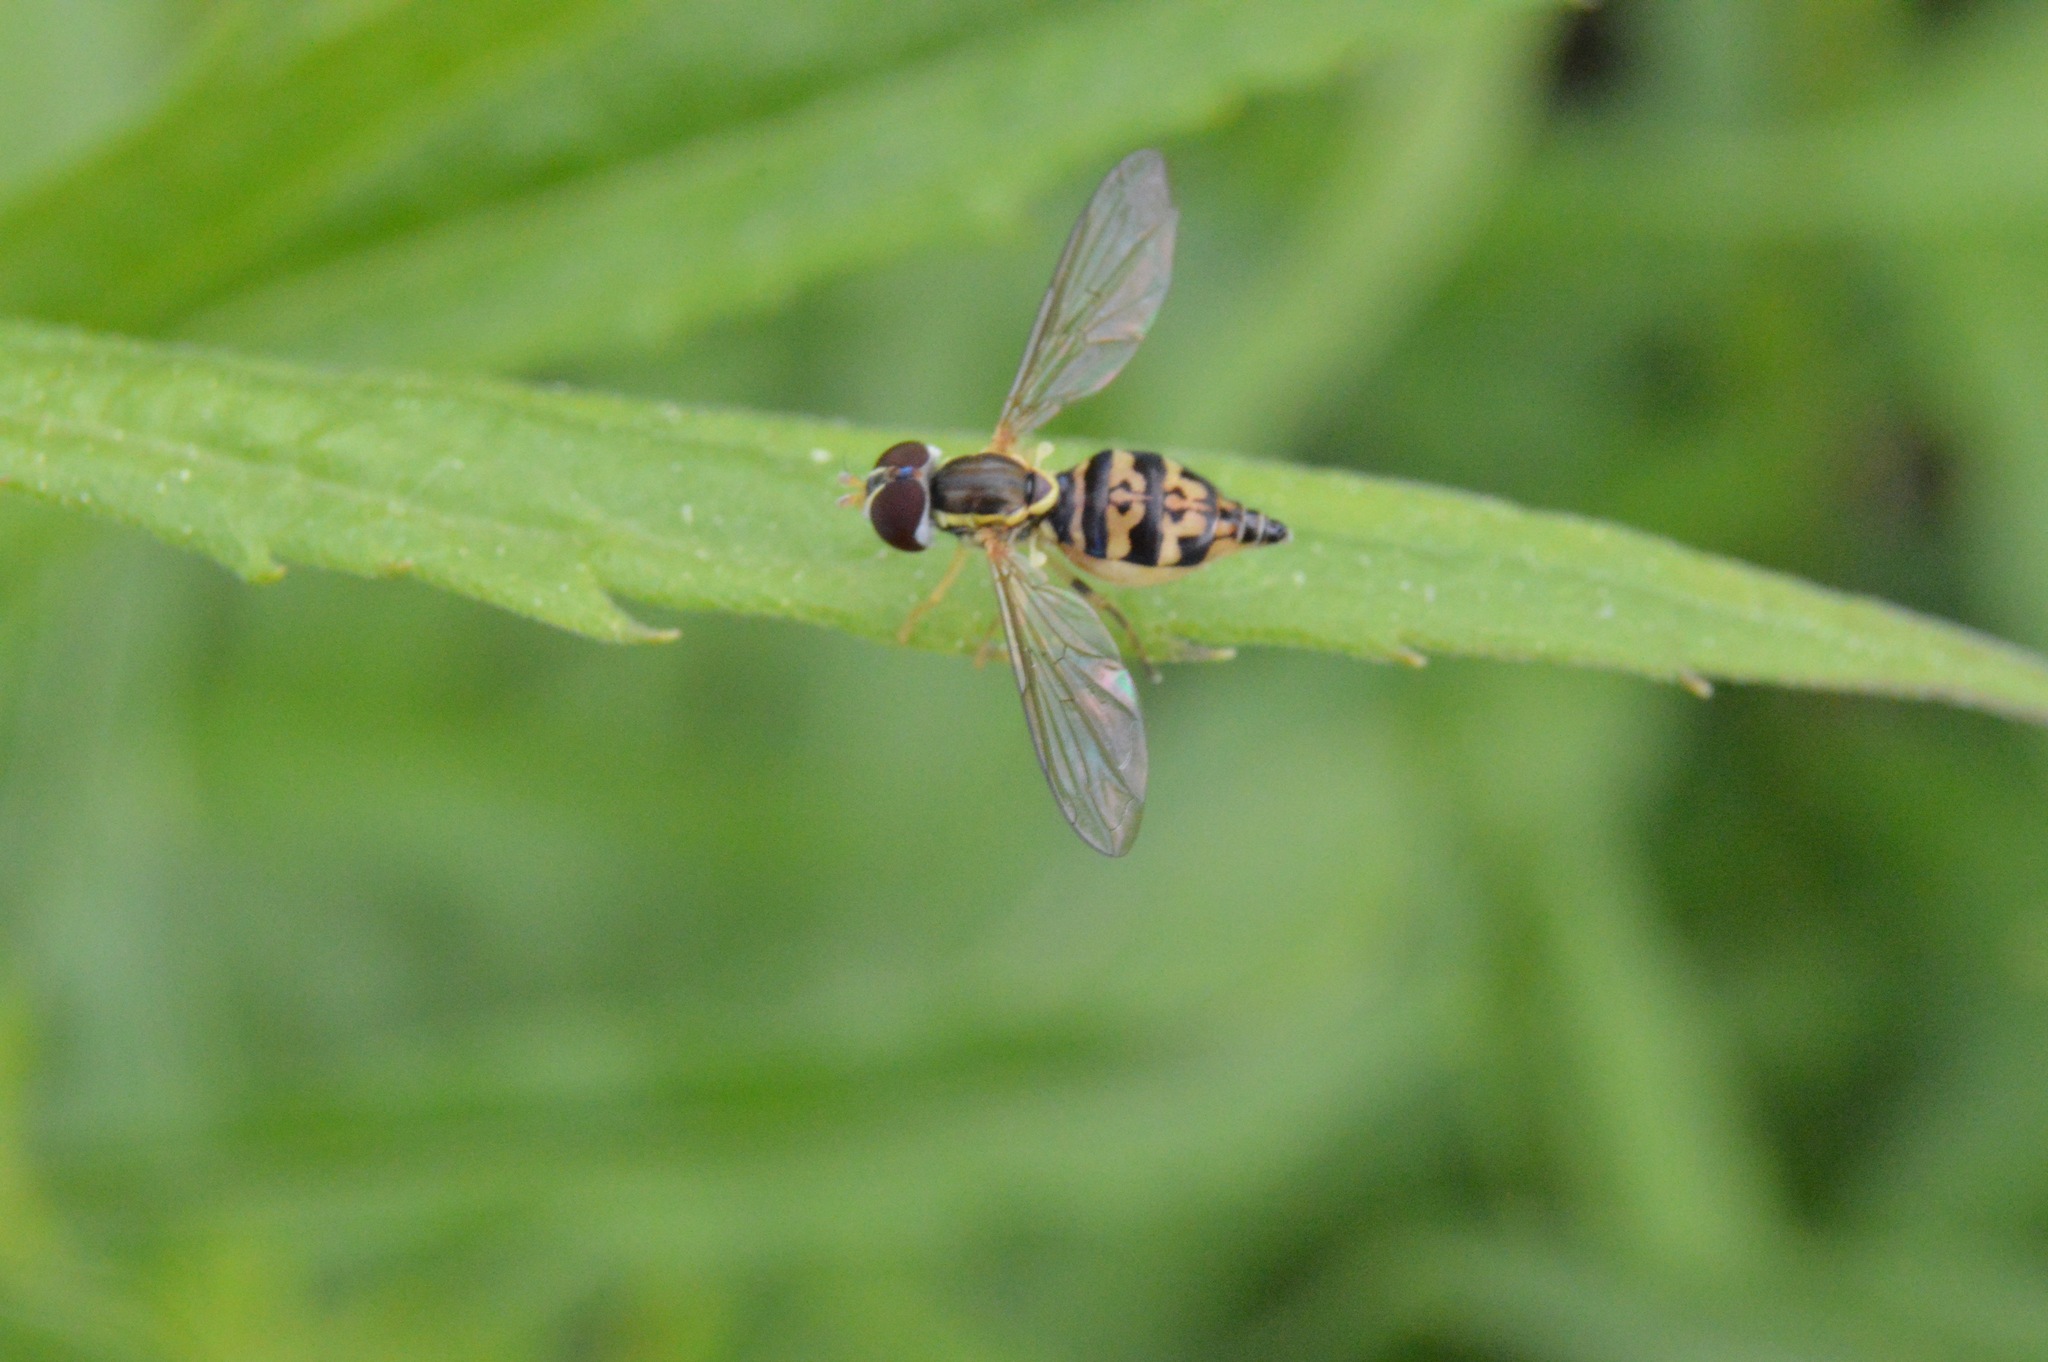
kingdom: Animalia
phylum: Arthropoda
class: Insecta
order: Diptera
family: Syrphidae
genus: Toxomerus
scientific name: Toxomerus geminatus
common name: Eastern calligrapher
